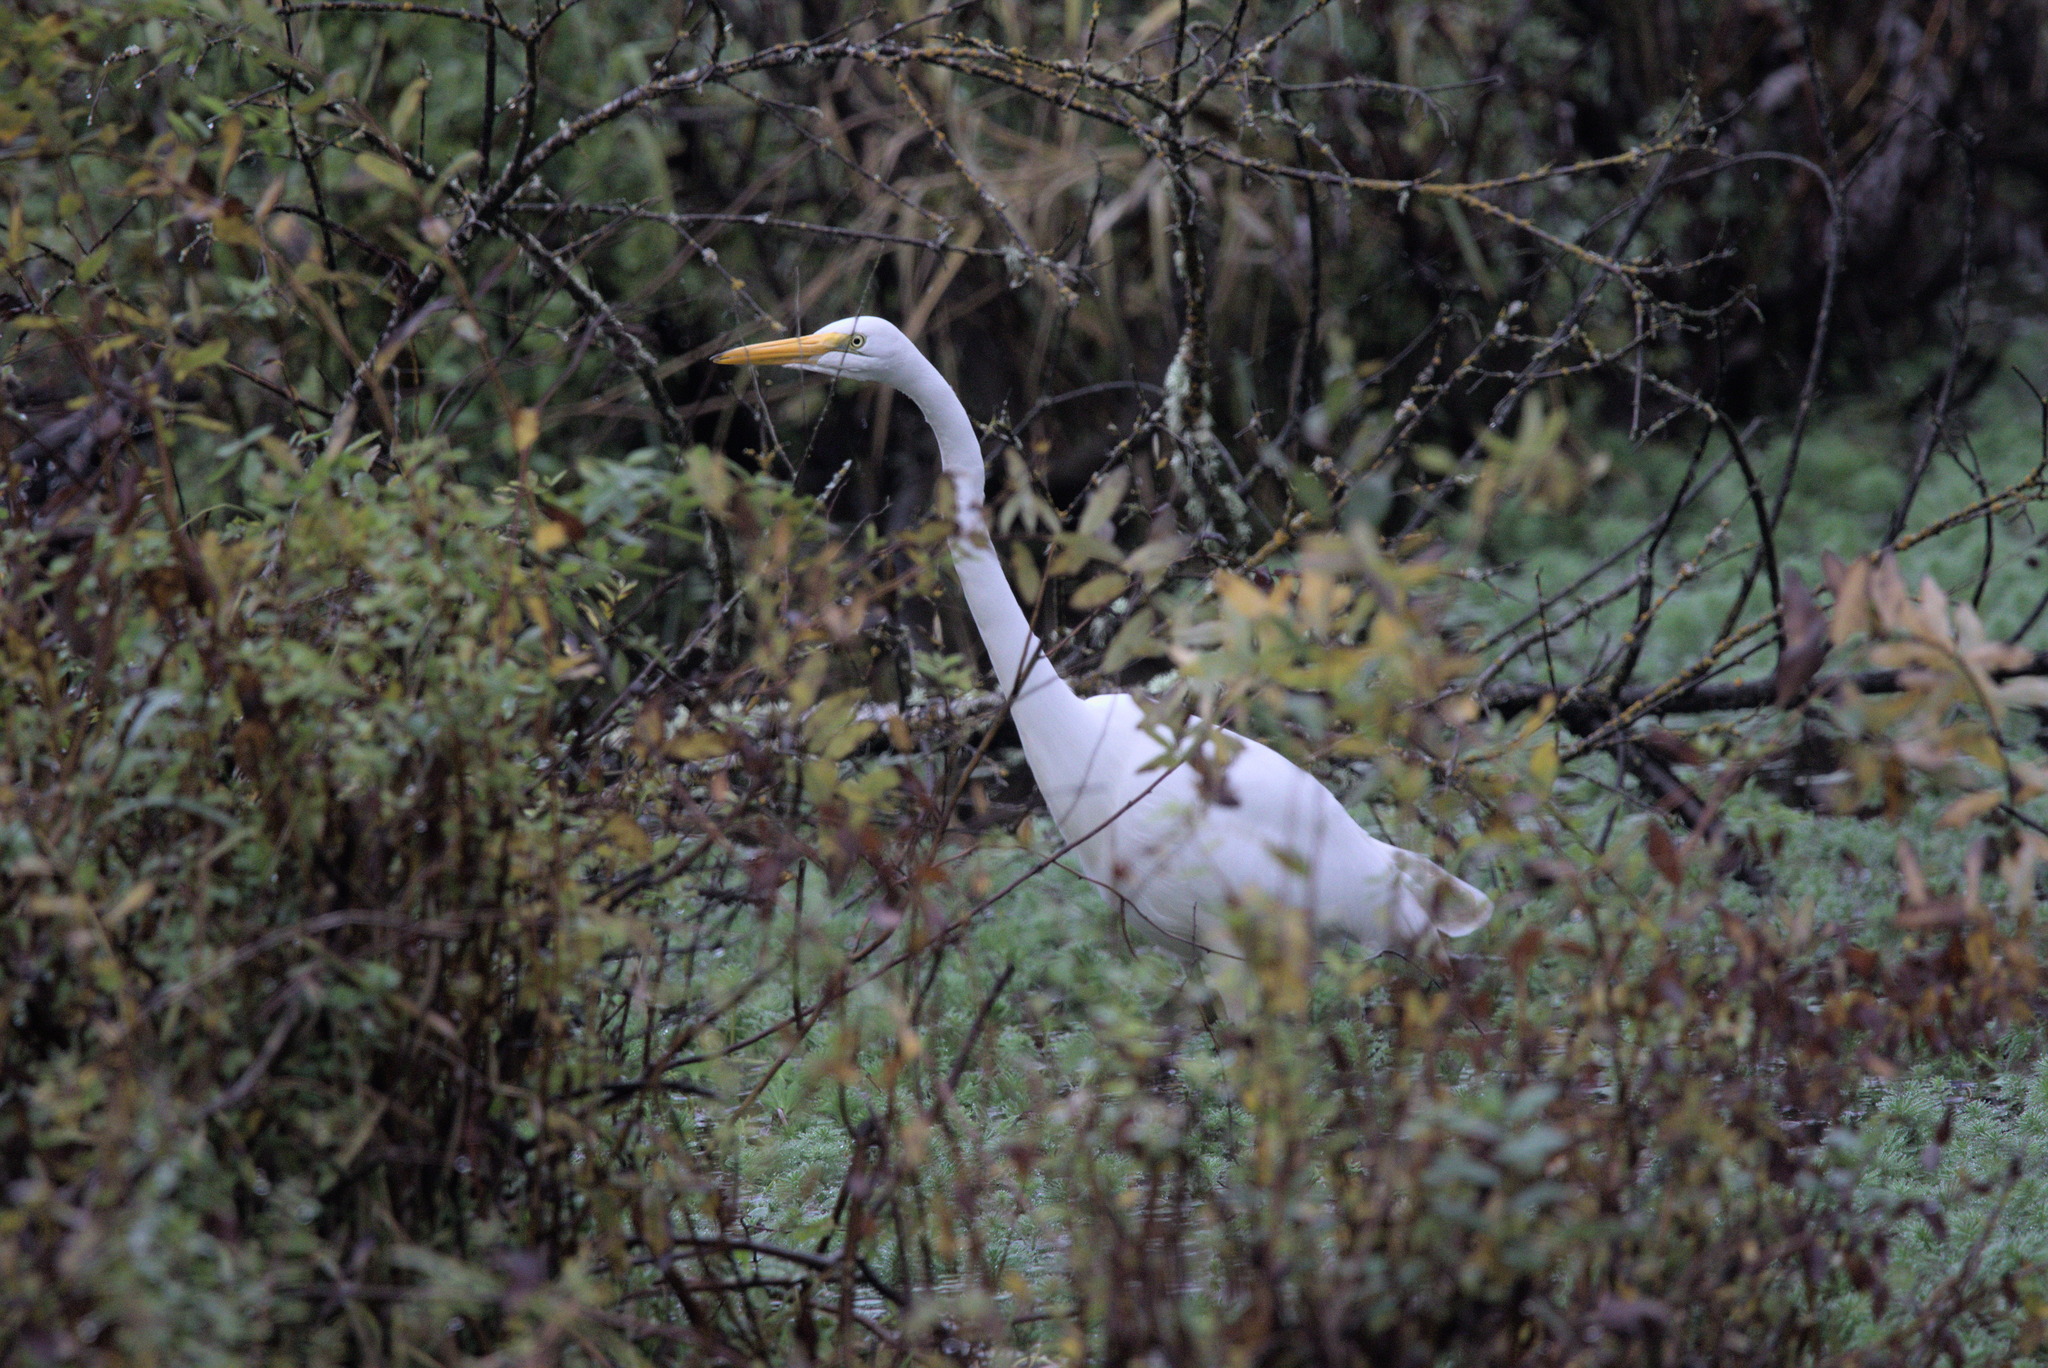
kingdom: Animalia
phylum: Chordata
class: Aves
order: Pelecaniformes
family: Ardeidae
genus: Ardea
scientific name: Ardea alba
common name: Great egret
